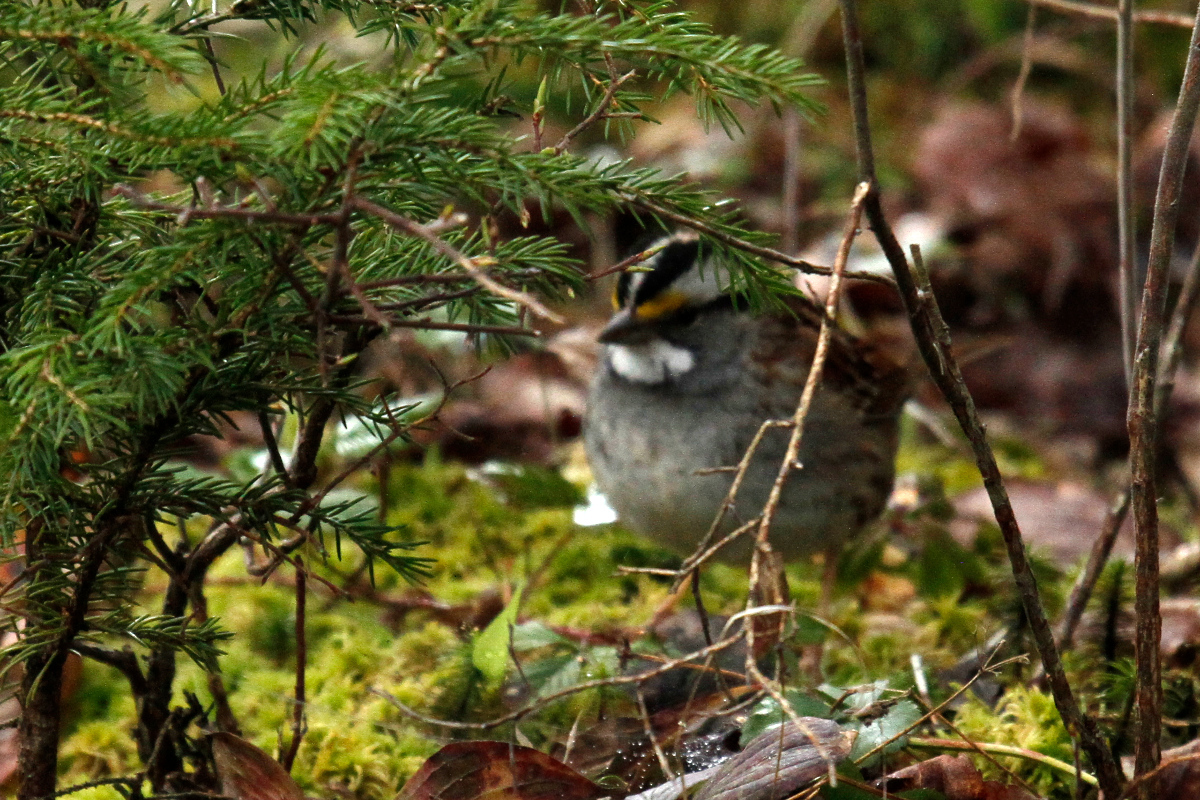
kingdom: Animalia
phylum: Chordata
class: Aves
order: Passeriformes
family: Passerellidae
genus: Zonotrichia
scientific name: Zonotrichia albicollis
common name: White-throated sparrow
